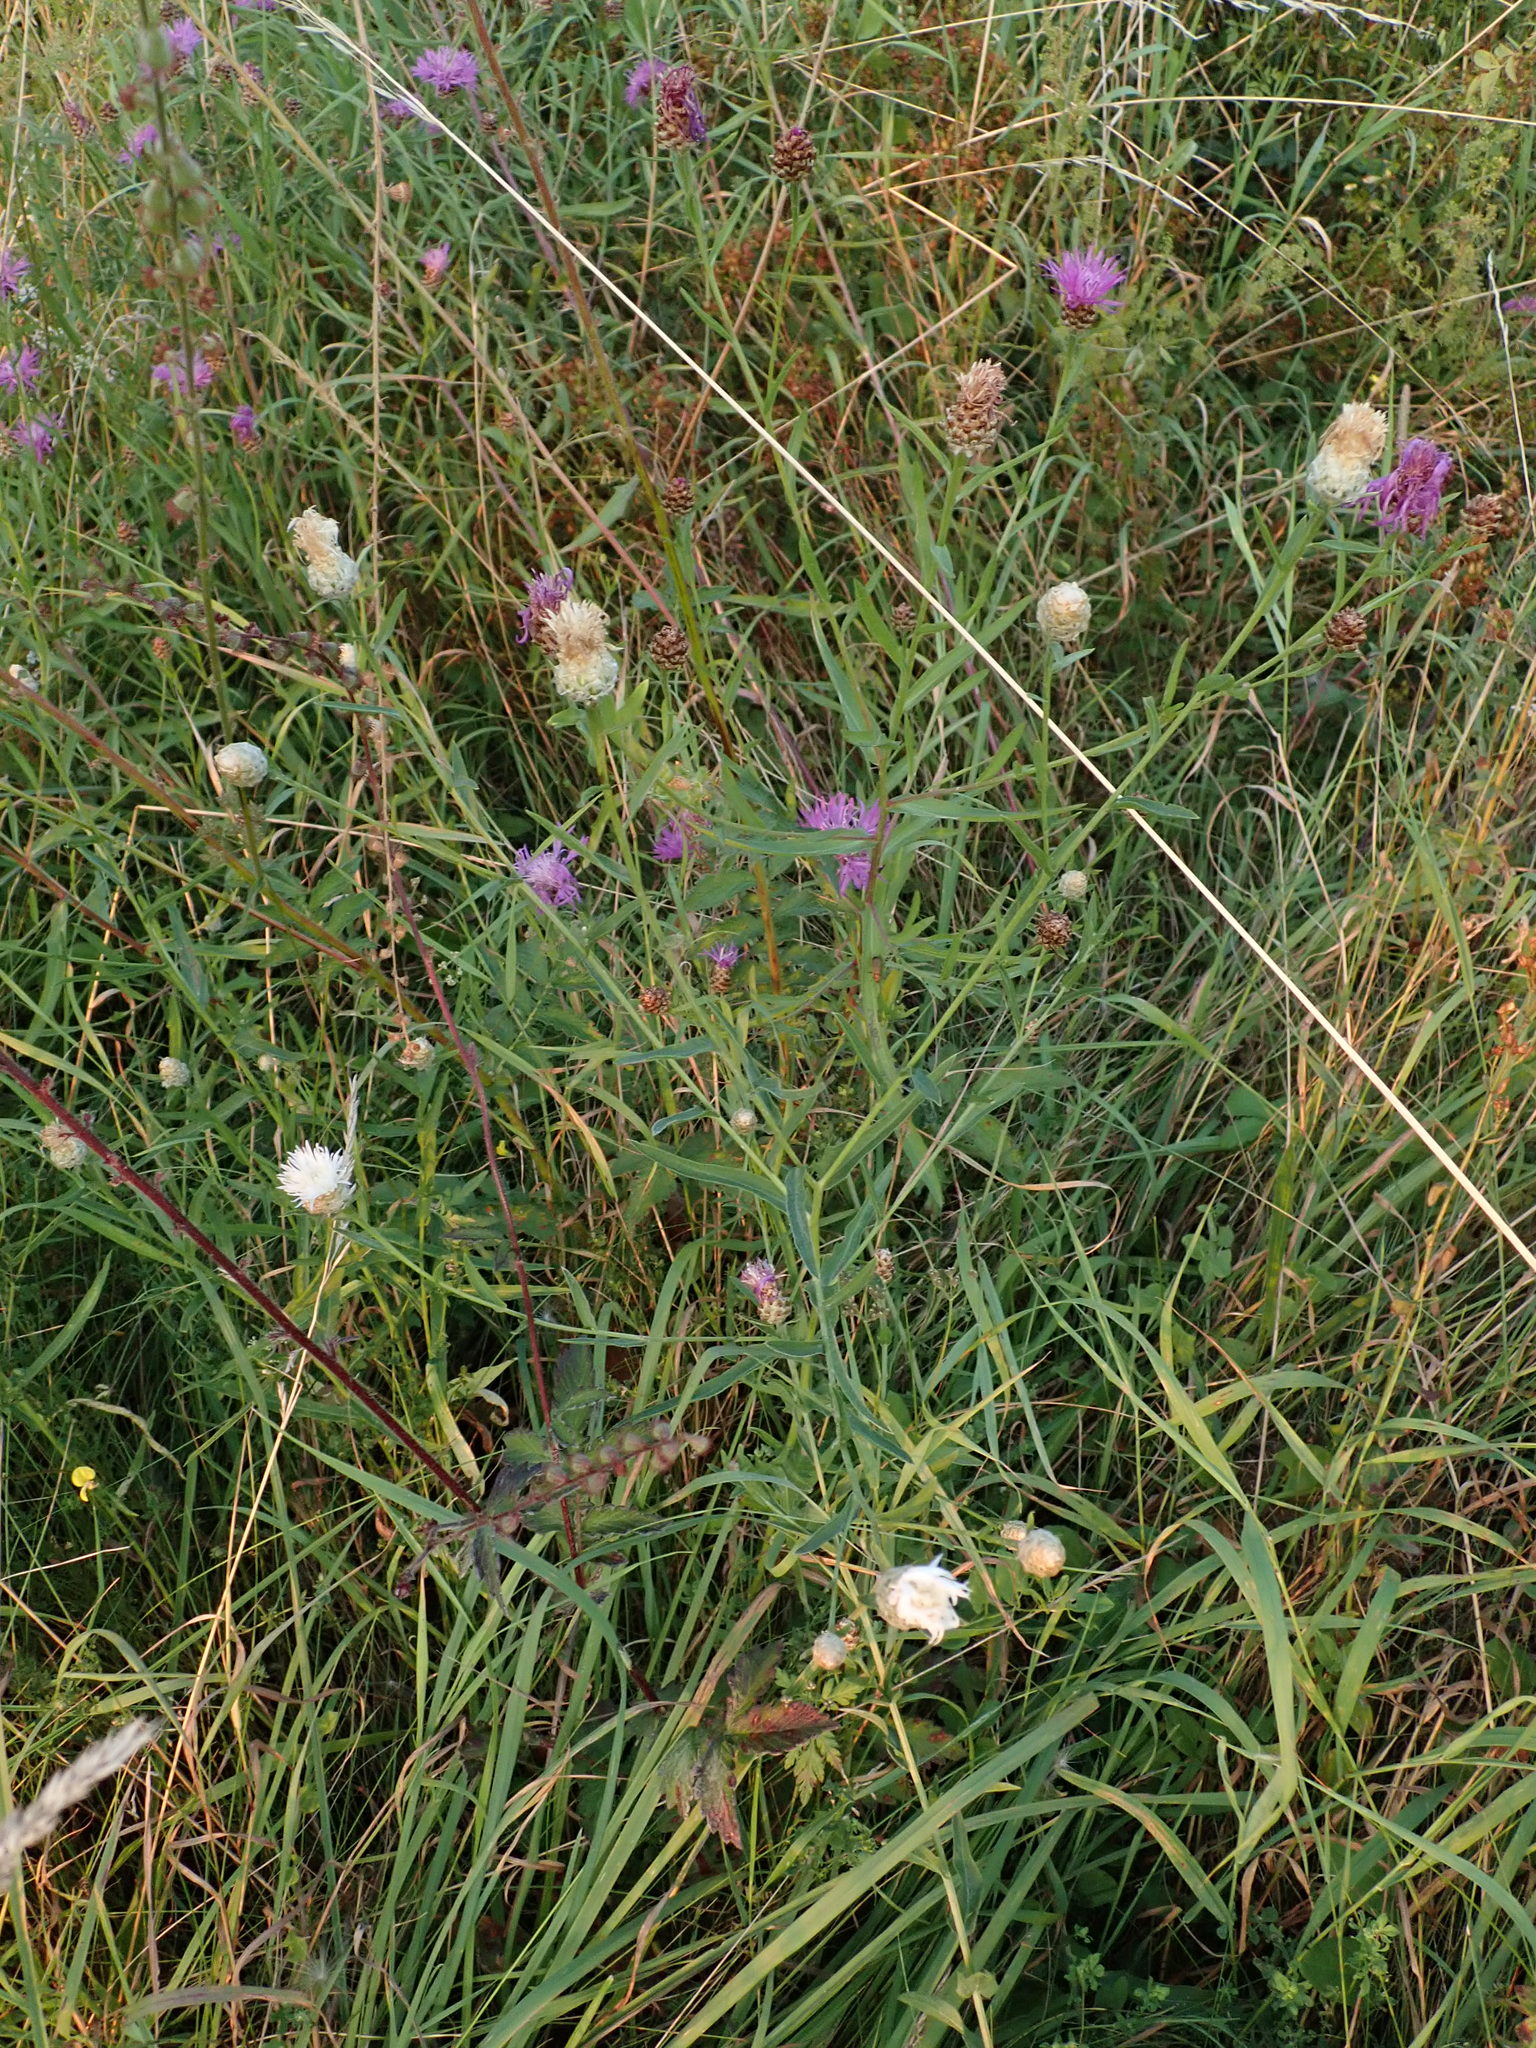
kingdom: Plantae
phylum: Tracheophyta
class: Magnoliopsida
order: Asterales
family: Asteraceae
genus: Centaurea
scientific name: Centaurea jacea
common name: Brown knapweed
